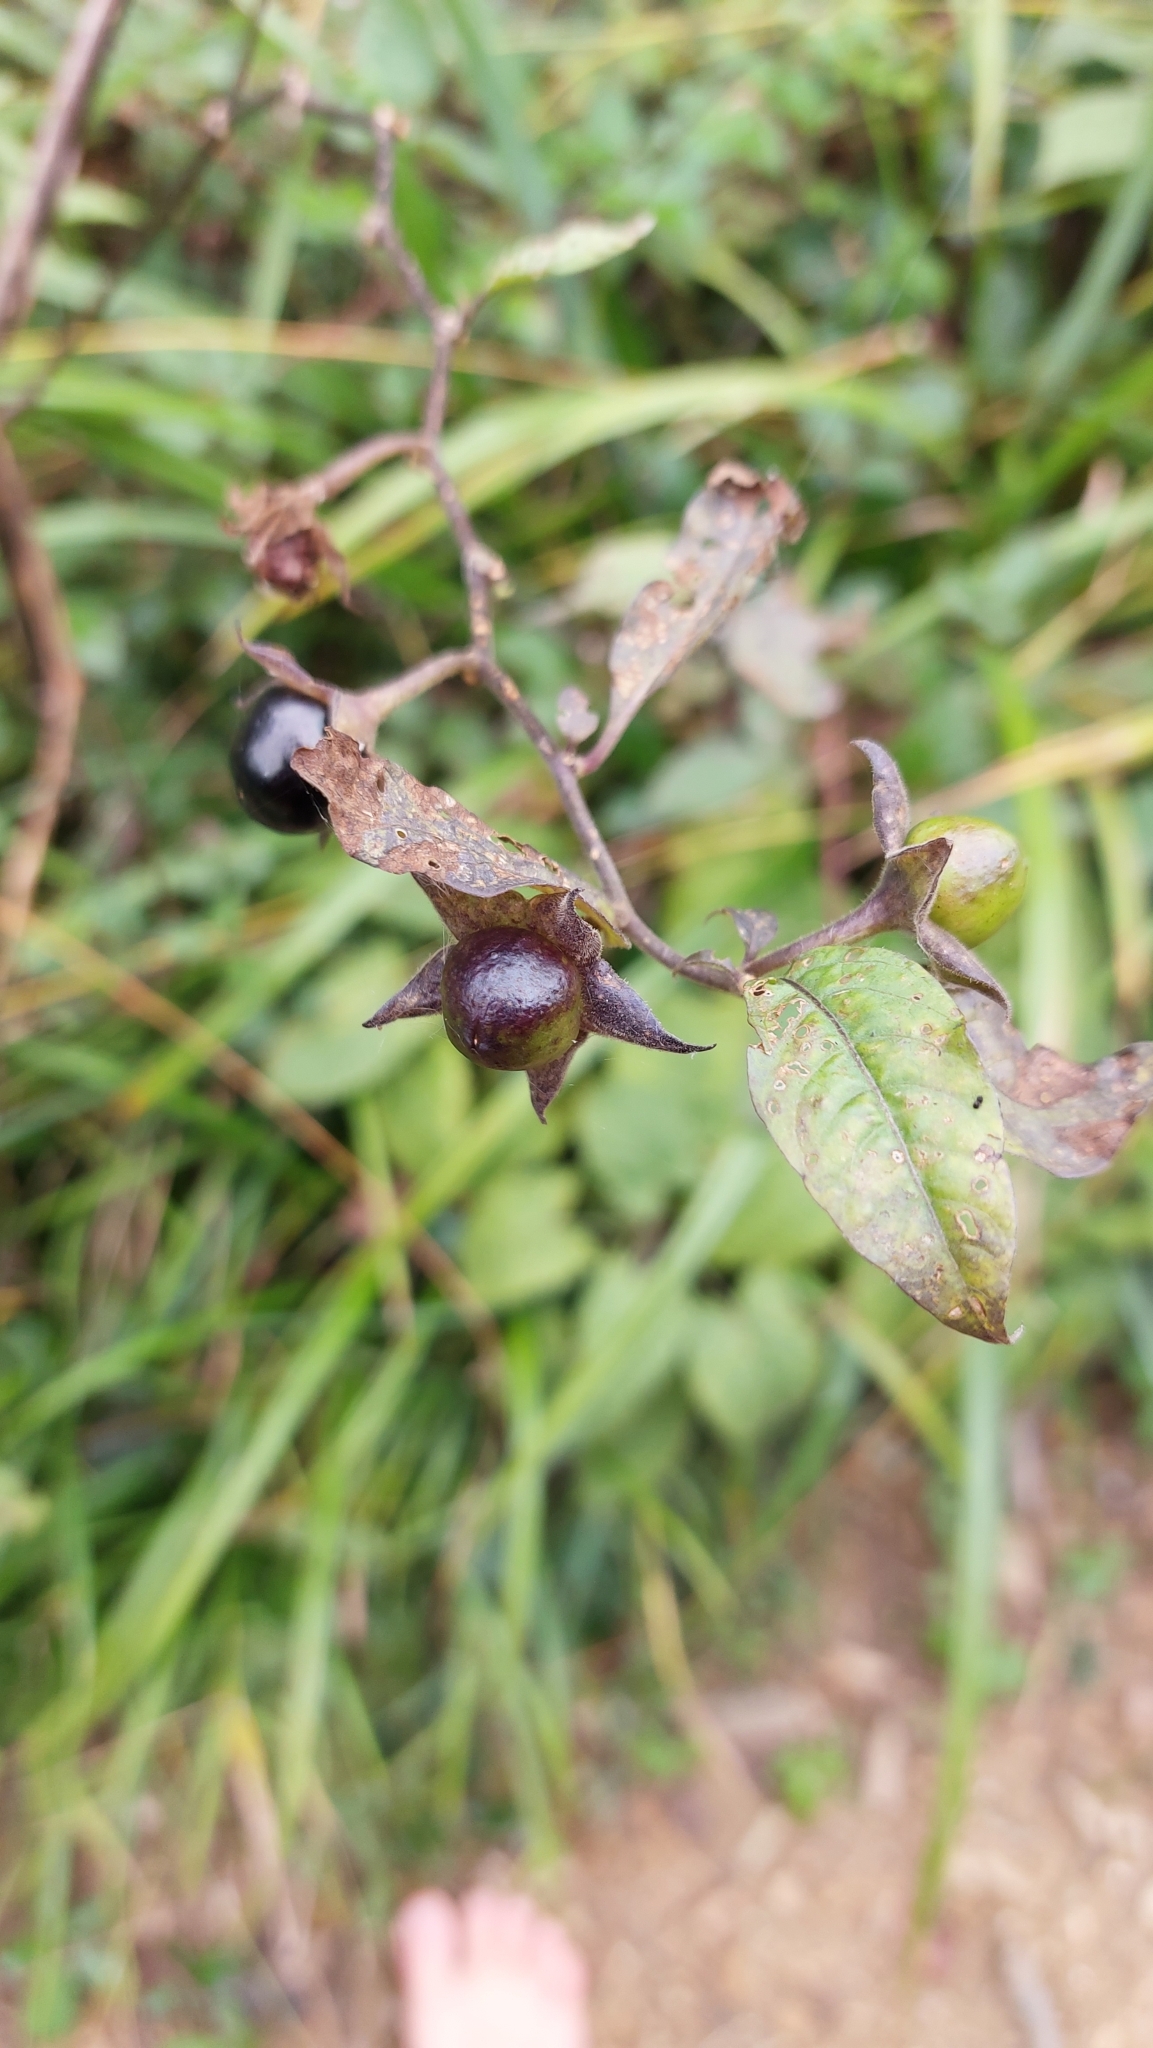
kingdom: Plantae
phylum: Tracheophyta
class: Magnoliopsida
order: Solanales
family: Solanaceae
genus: Atropa
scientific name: Atropa belladonna
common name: Deadly nightshade
